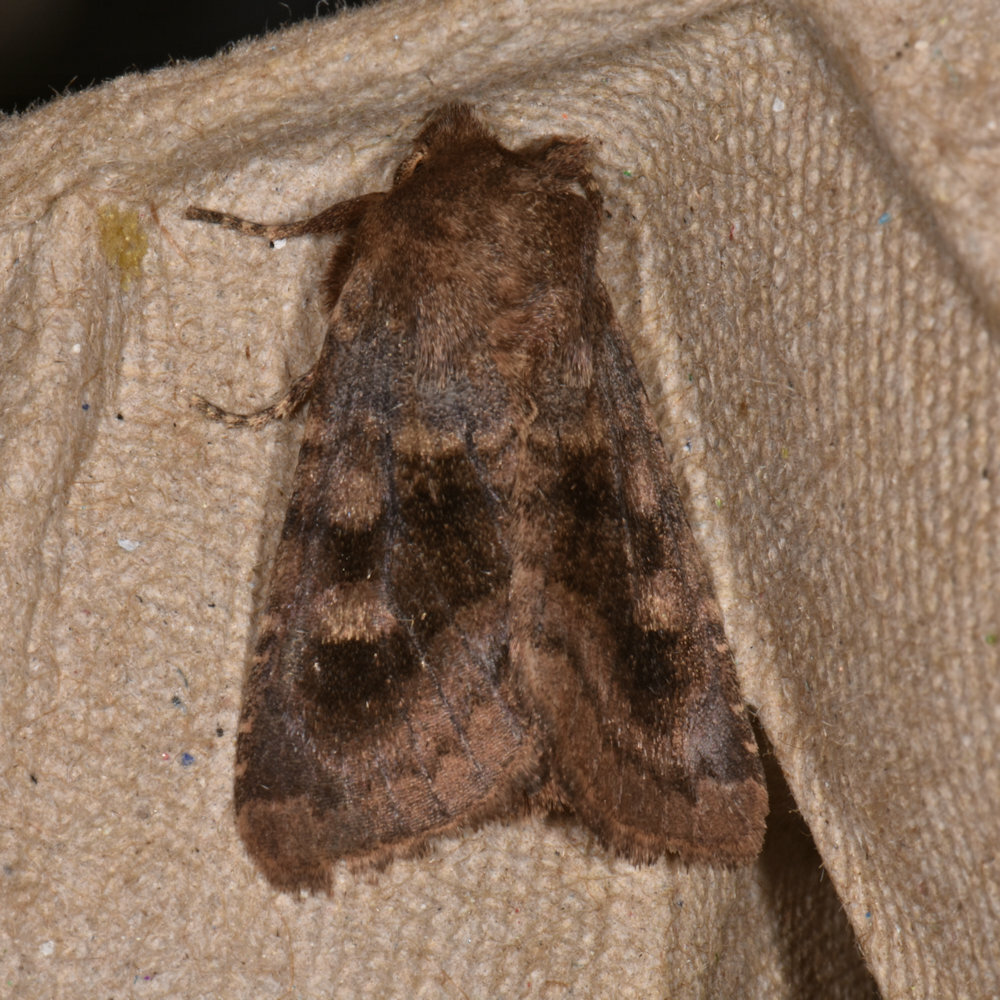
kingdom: Animalia
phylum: Arthropoda
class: Insecta
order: Lepidoptera
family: Noctuidae
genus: Nephelodes
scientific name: Nephelodes minians
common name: Bronzed cutworm
